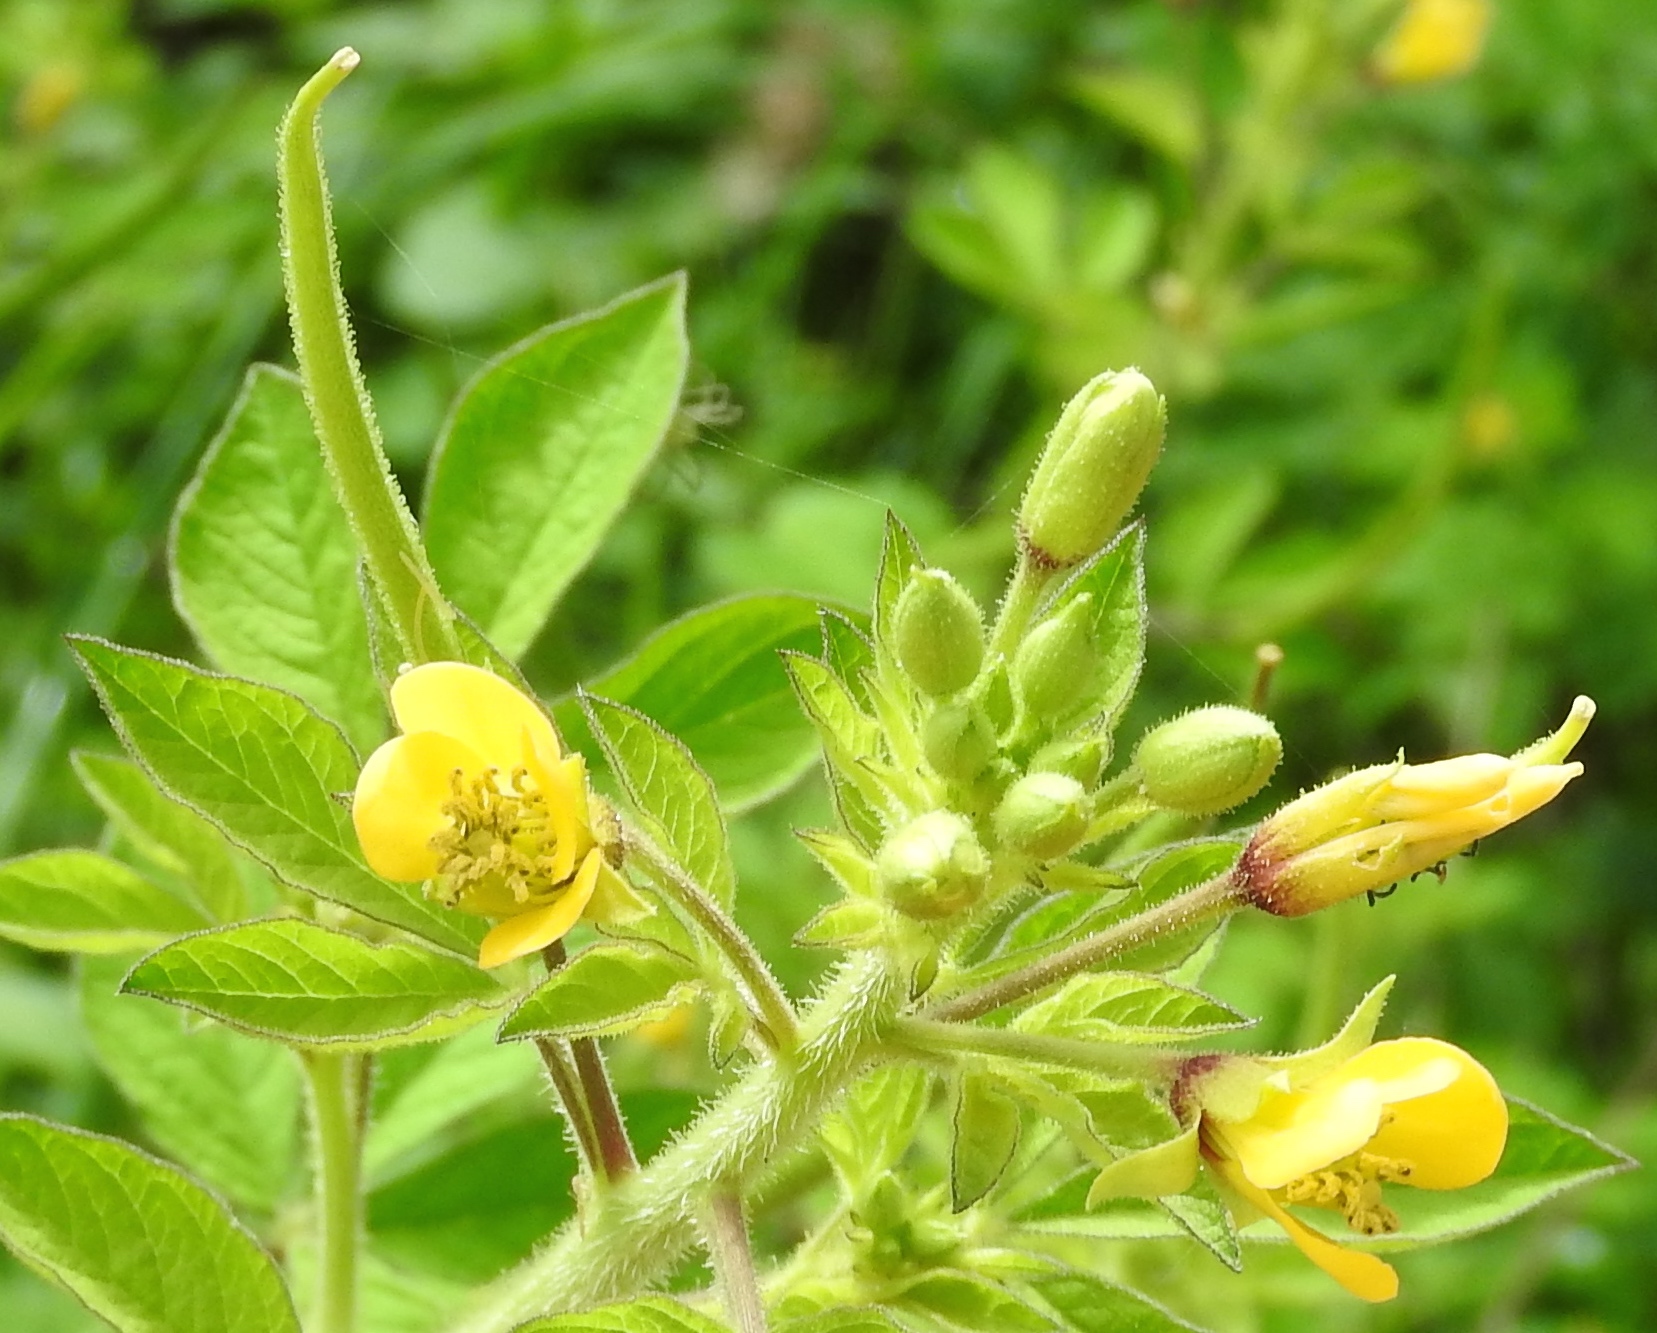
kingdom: Plantae
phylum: Tracheophyta
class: Magnoliopsida
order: Brassicales
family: Cleomaceae
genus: Arivela
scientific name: Arivela viscosa
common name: Asian spiderflower
